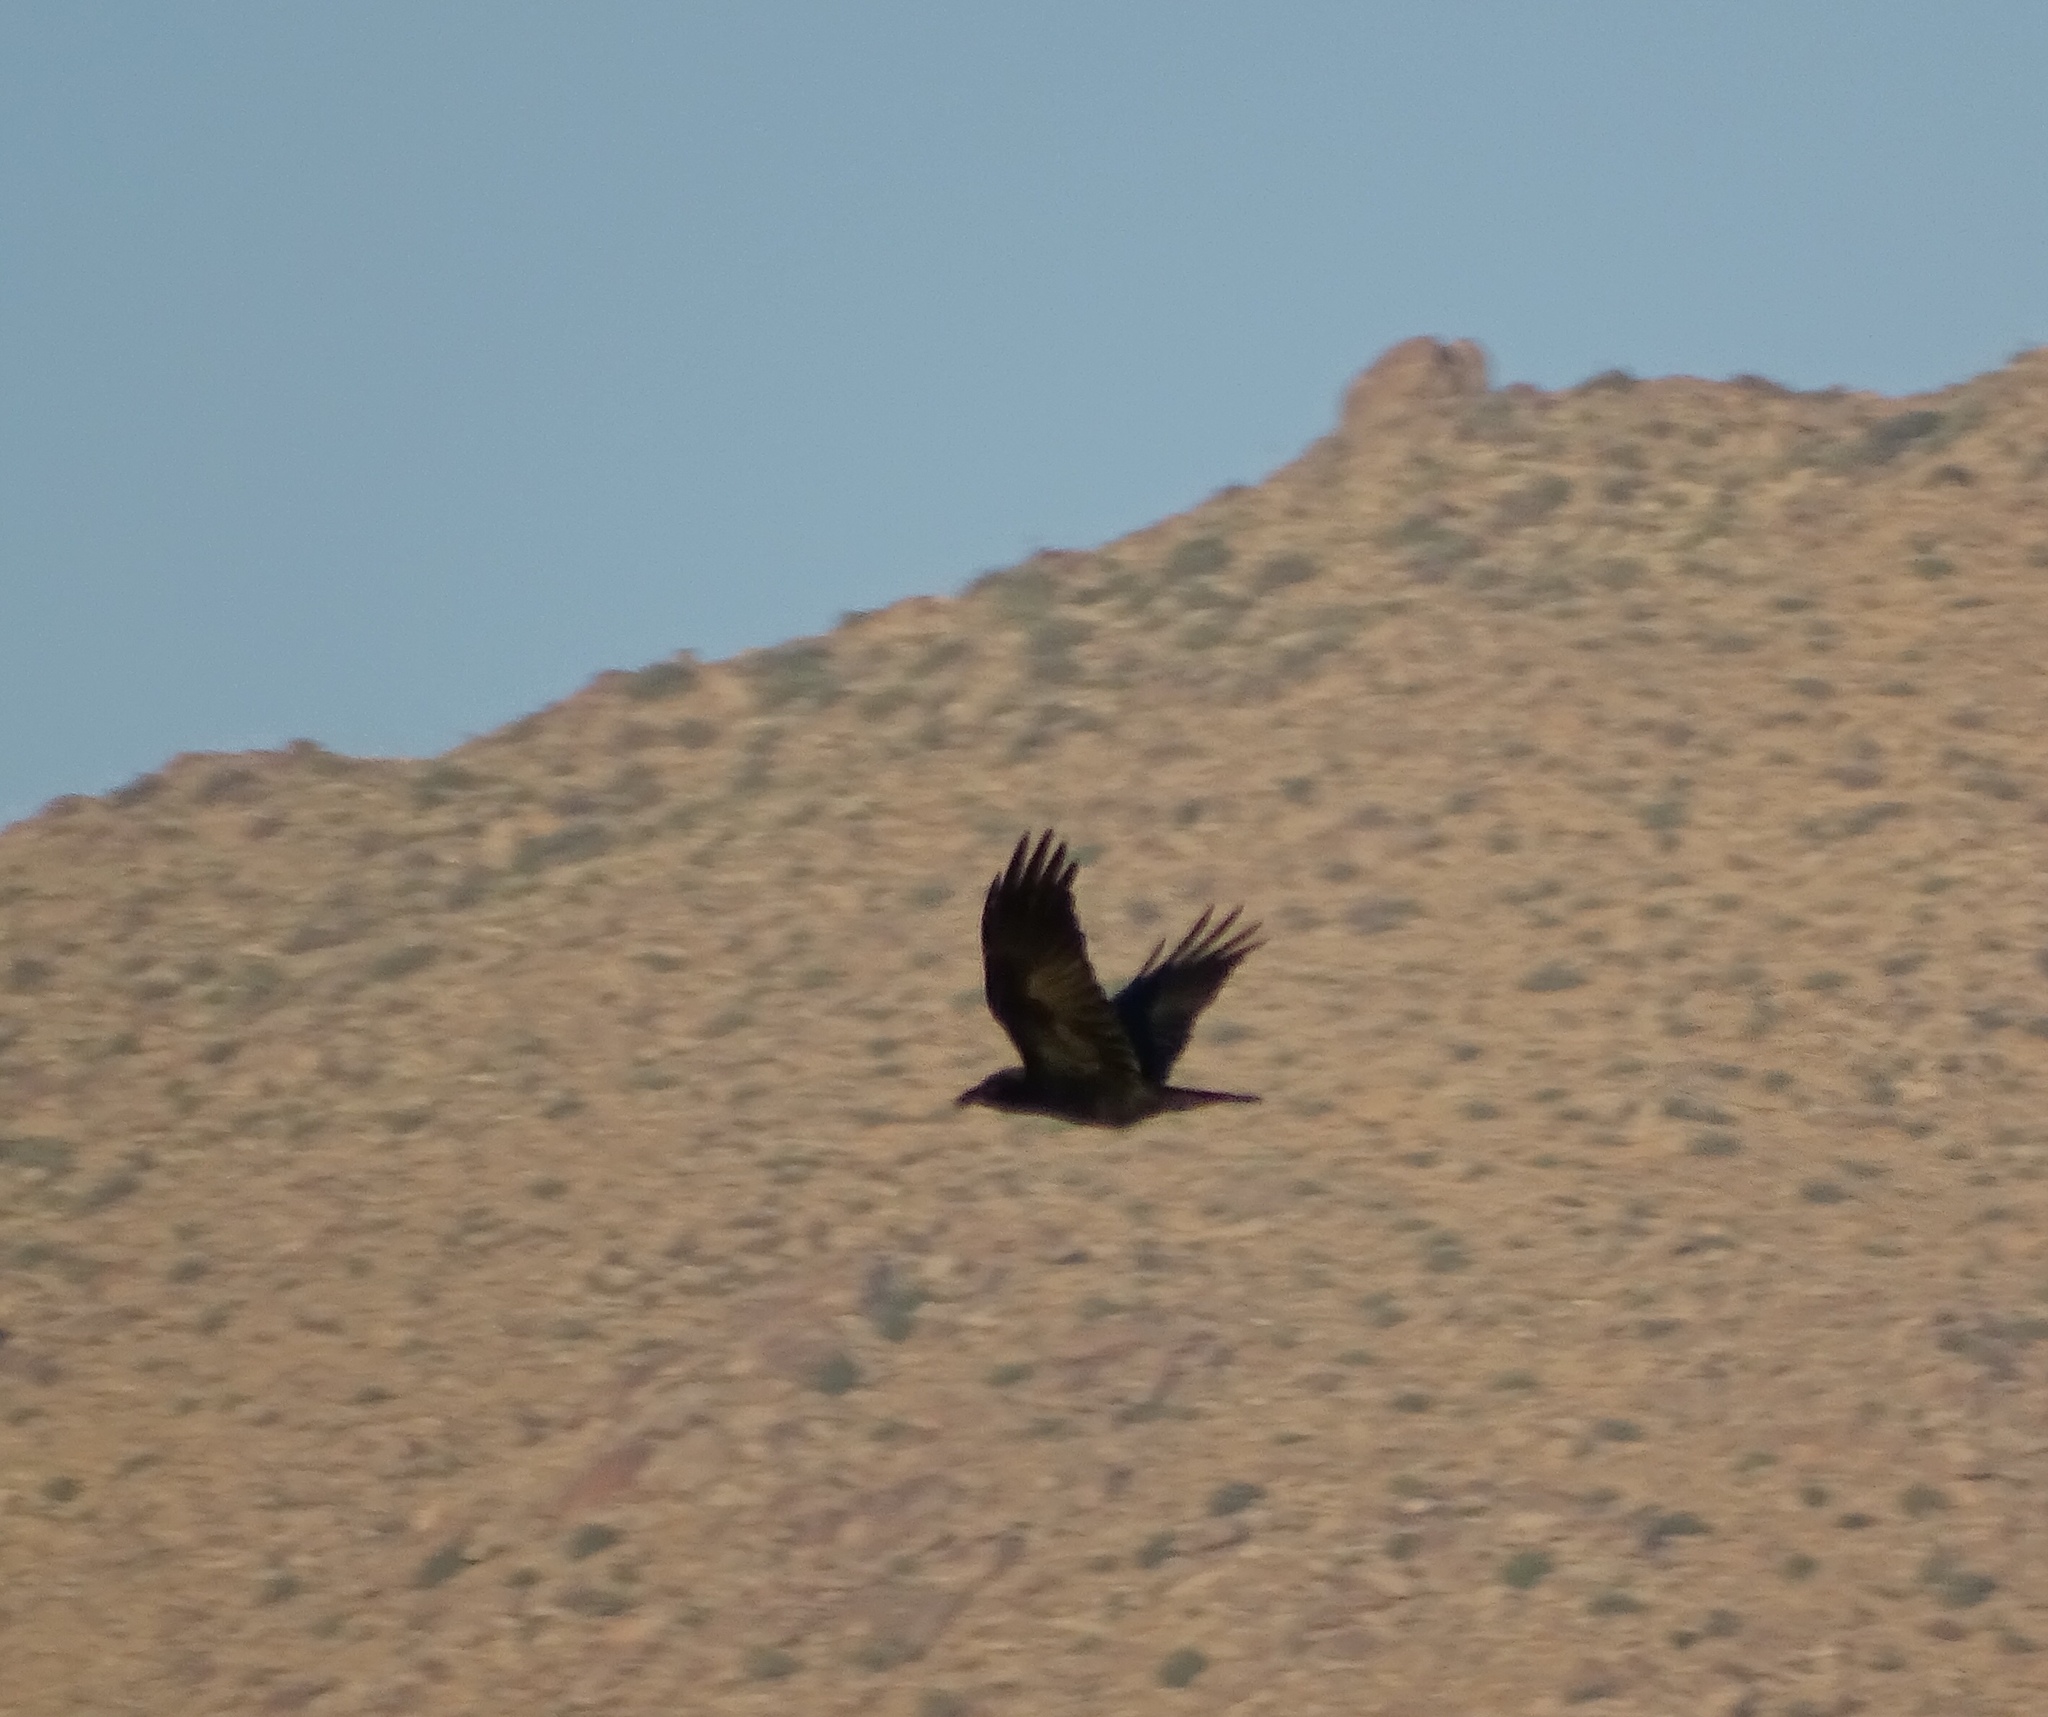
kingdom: Animalia
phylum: Chordata
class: Aves
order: Passeriformes
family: Corvidae
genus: Corvus
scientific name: Corvus corax
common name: Common raven
